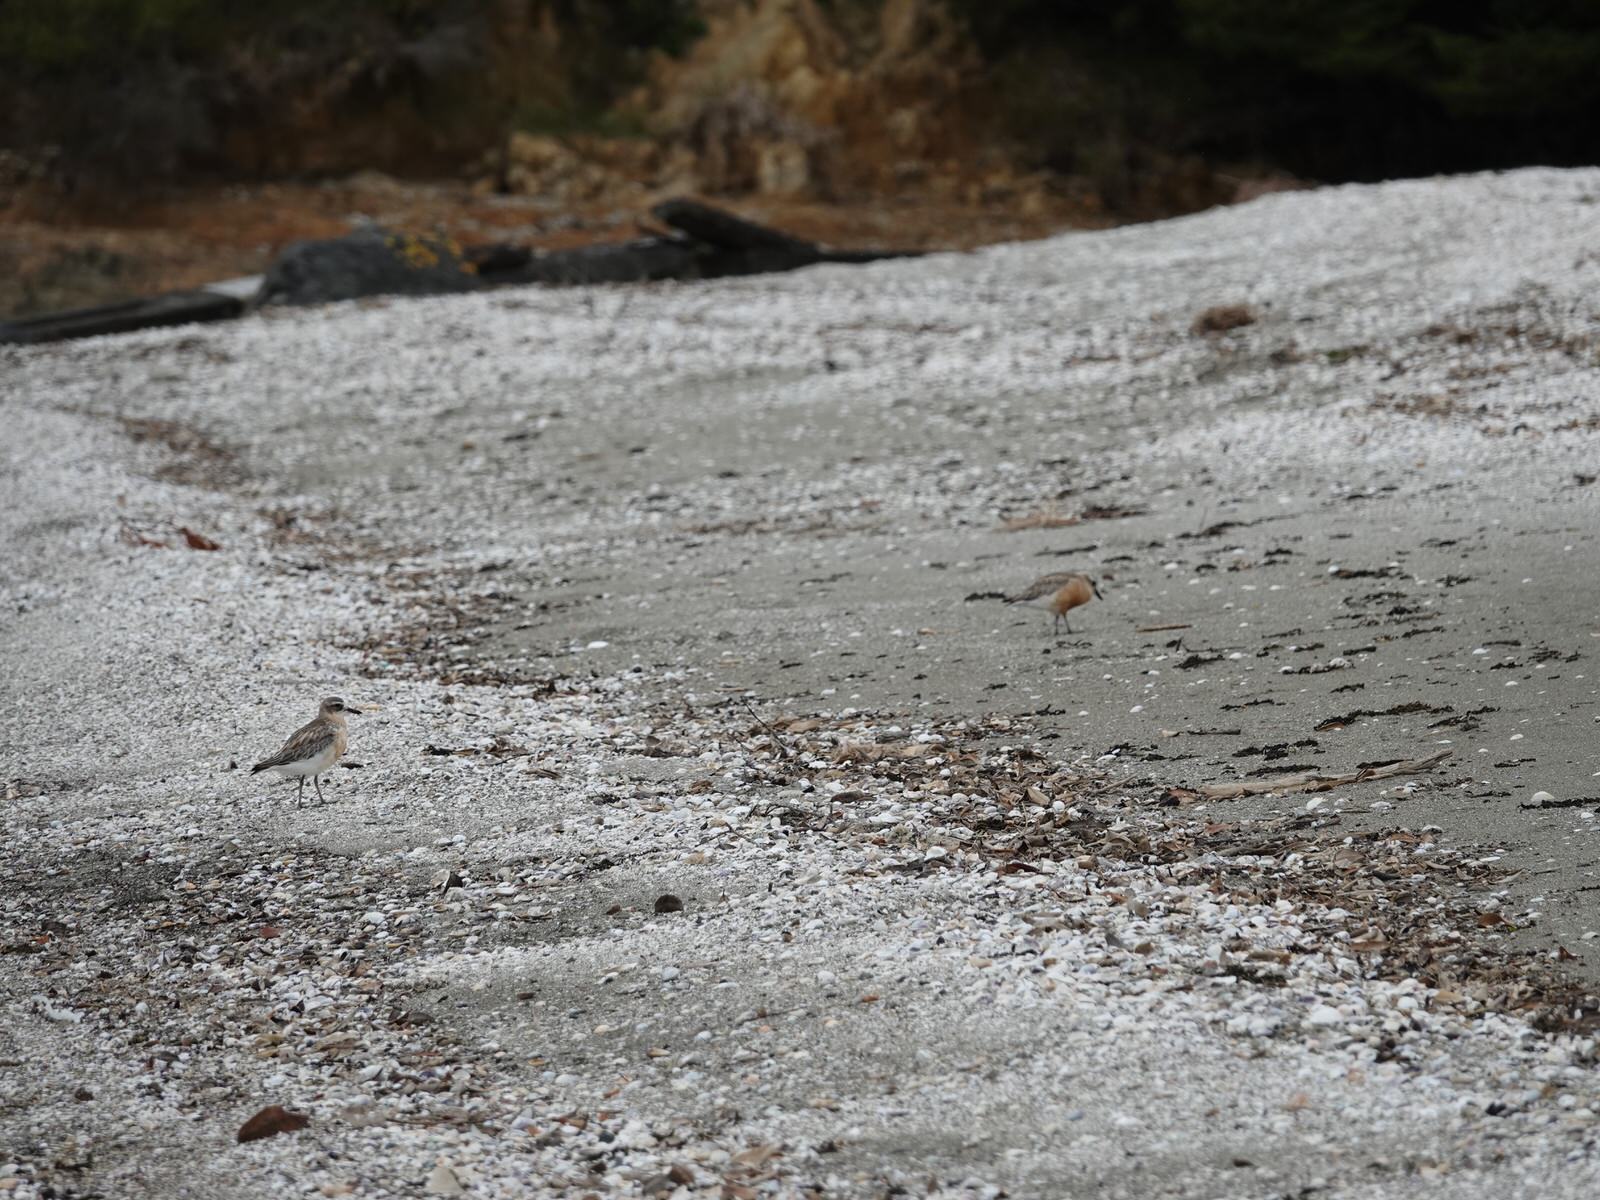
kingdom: Animalia
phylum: Chordata
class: Aves
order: Charadriiformes
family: Charadriidae
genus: Anarhynchus
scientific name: Anarhynchus
